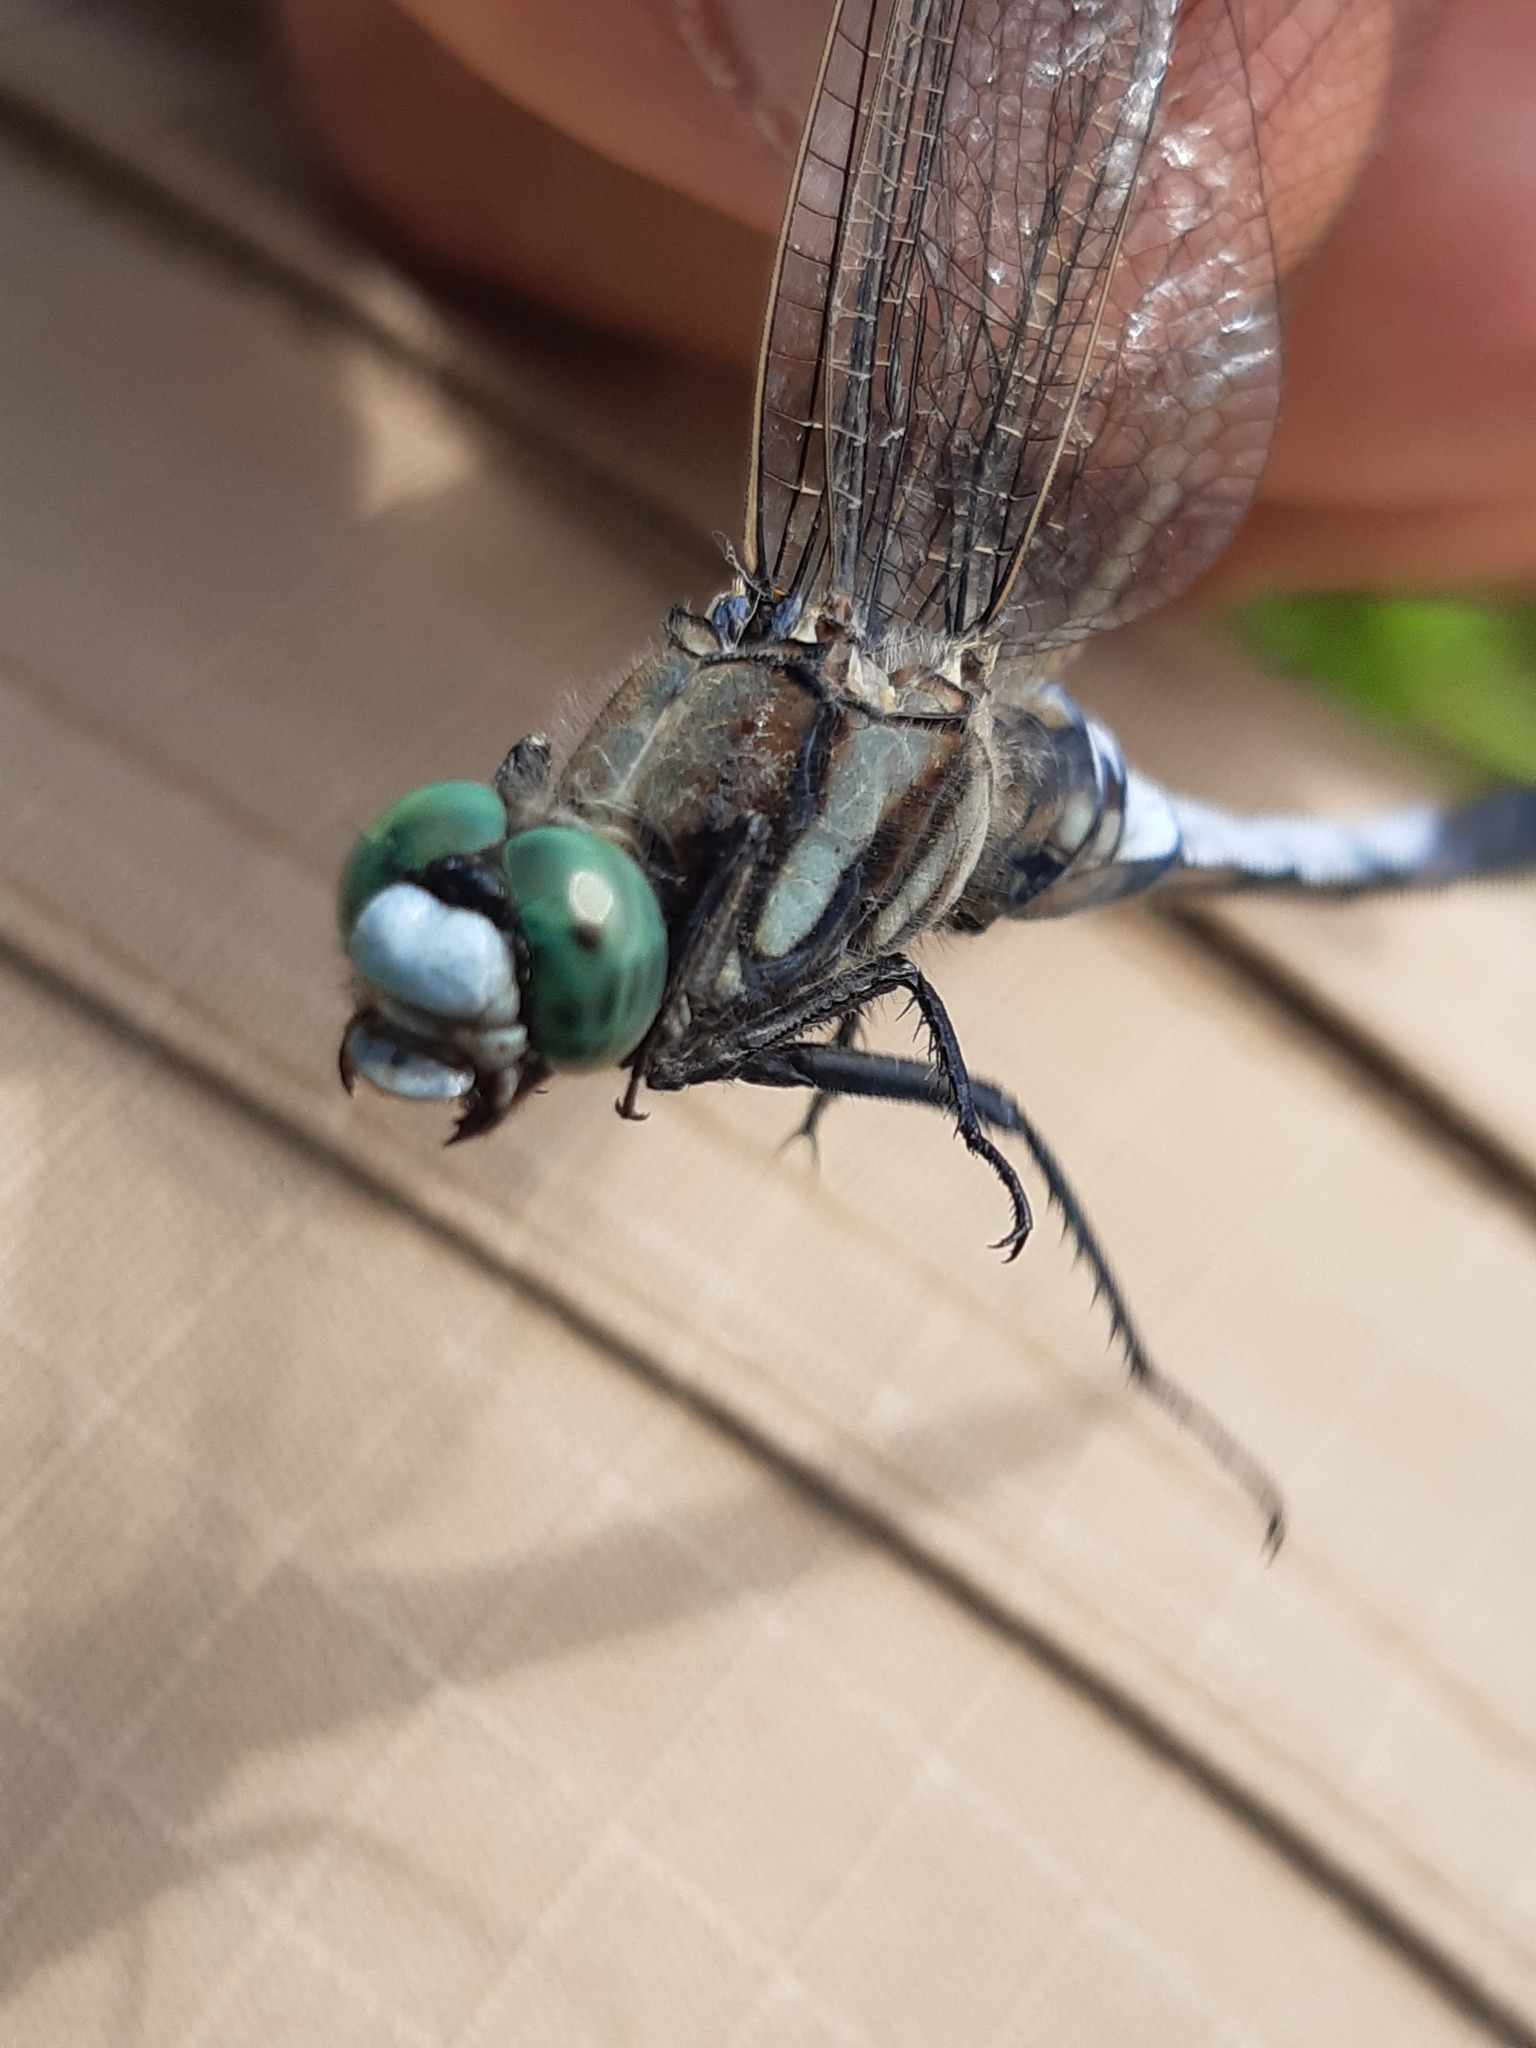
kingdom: Animalia
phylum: Arthropoda
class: Insecta
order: Odonata
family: Libellulidae
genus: Orthetrum
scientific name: Orthetrum albistylum
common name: White-tailed skimmer
